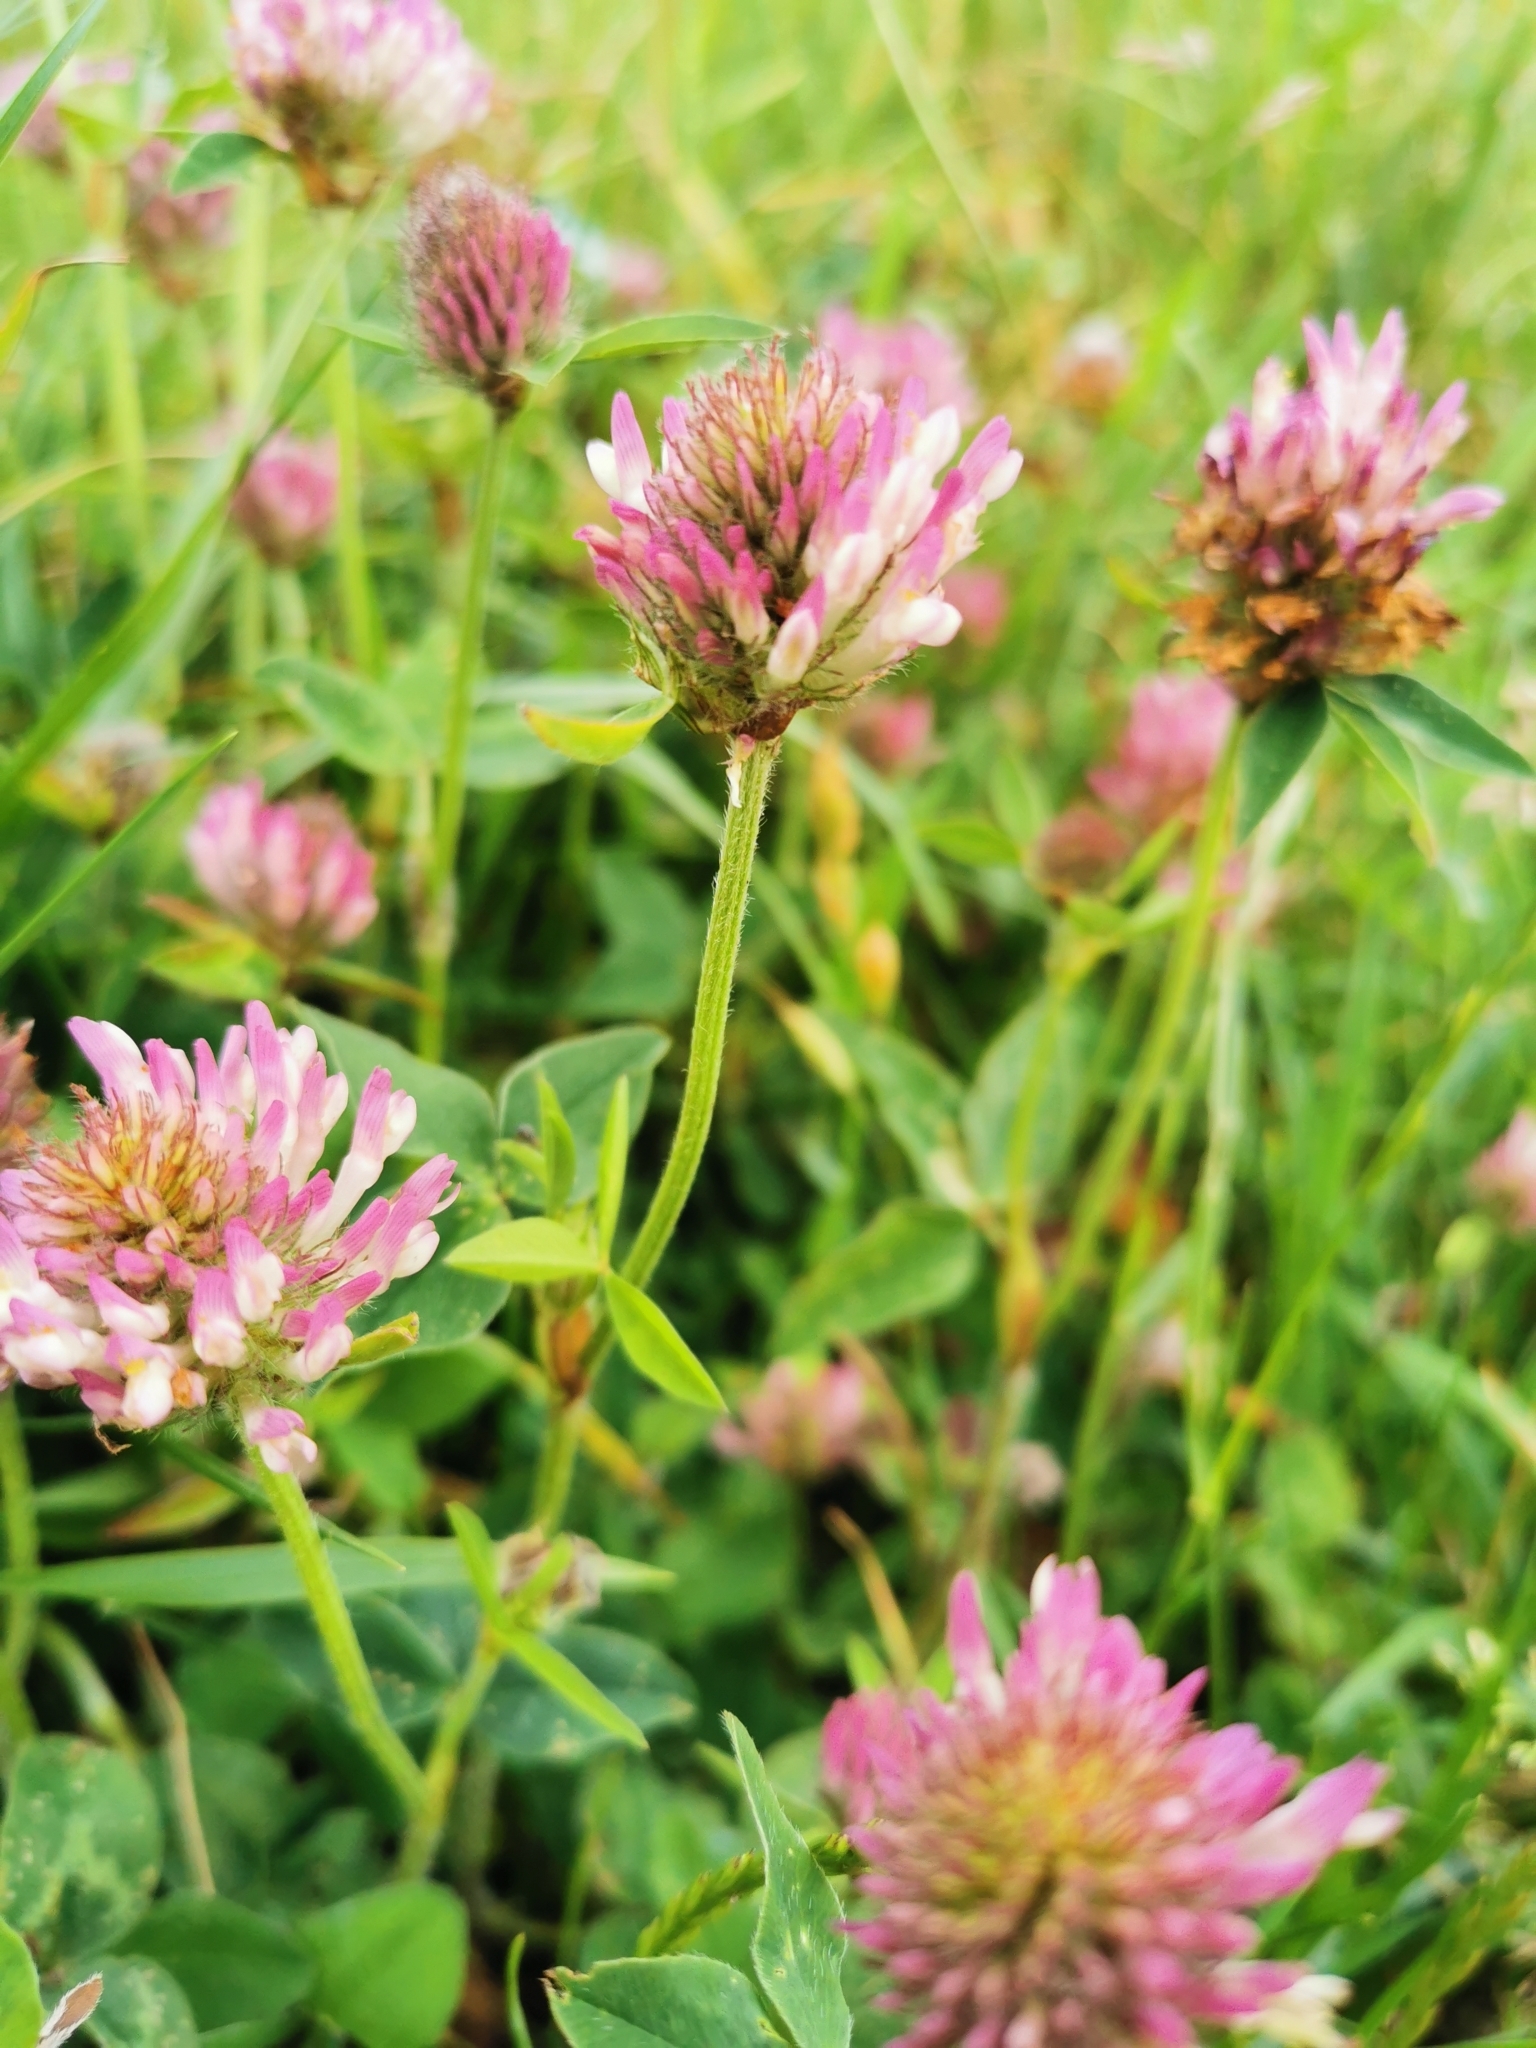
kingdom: Plantae
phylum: Tracheophyta
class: Magnoliopsida
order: Fabales
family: Fabaceae
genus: Trifolium
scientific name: Trifolium pratense
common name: Red clover
